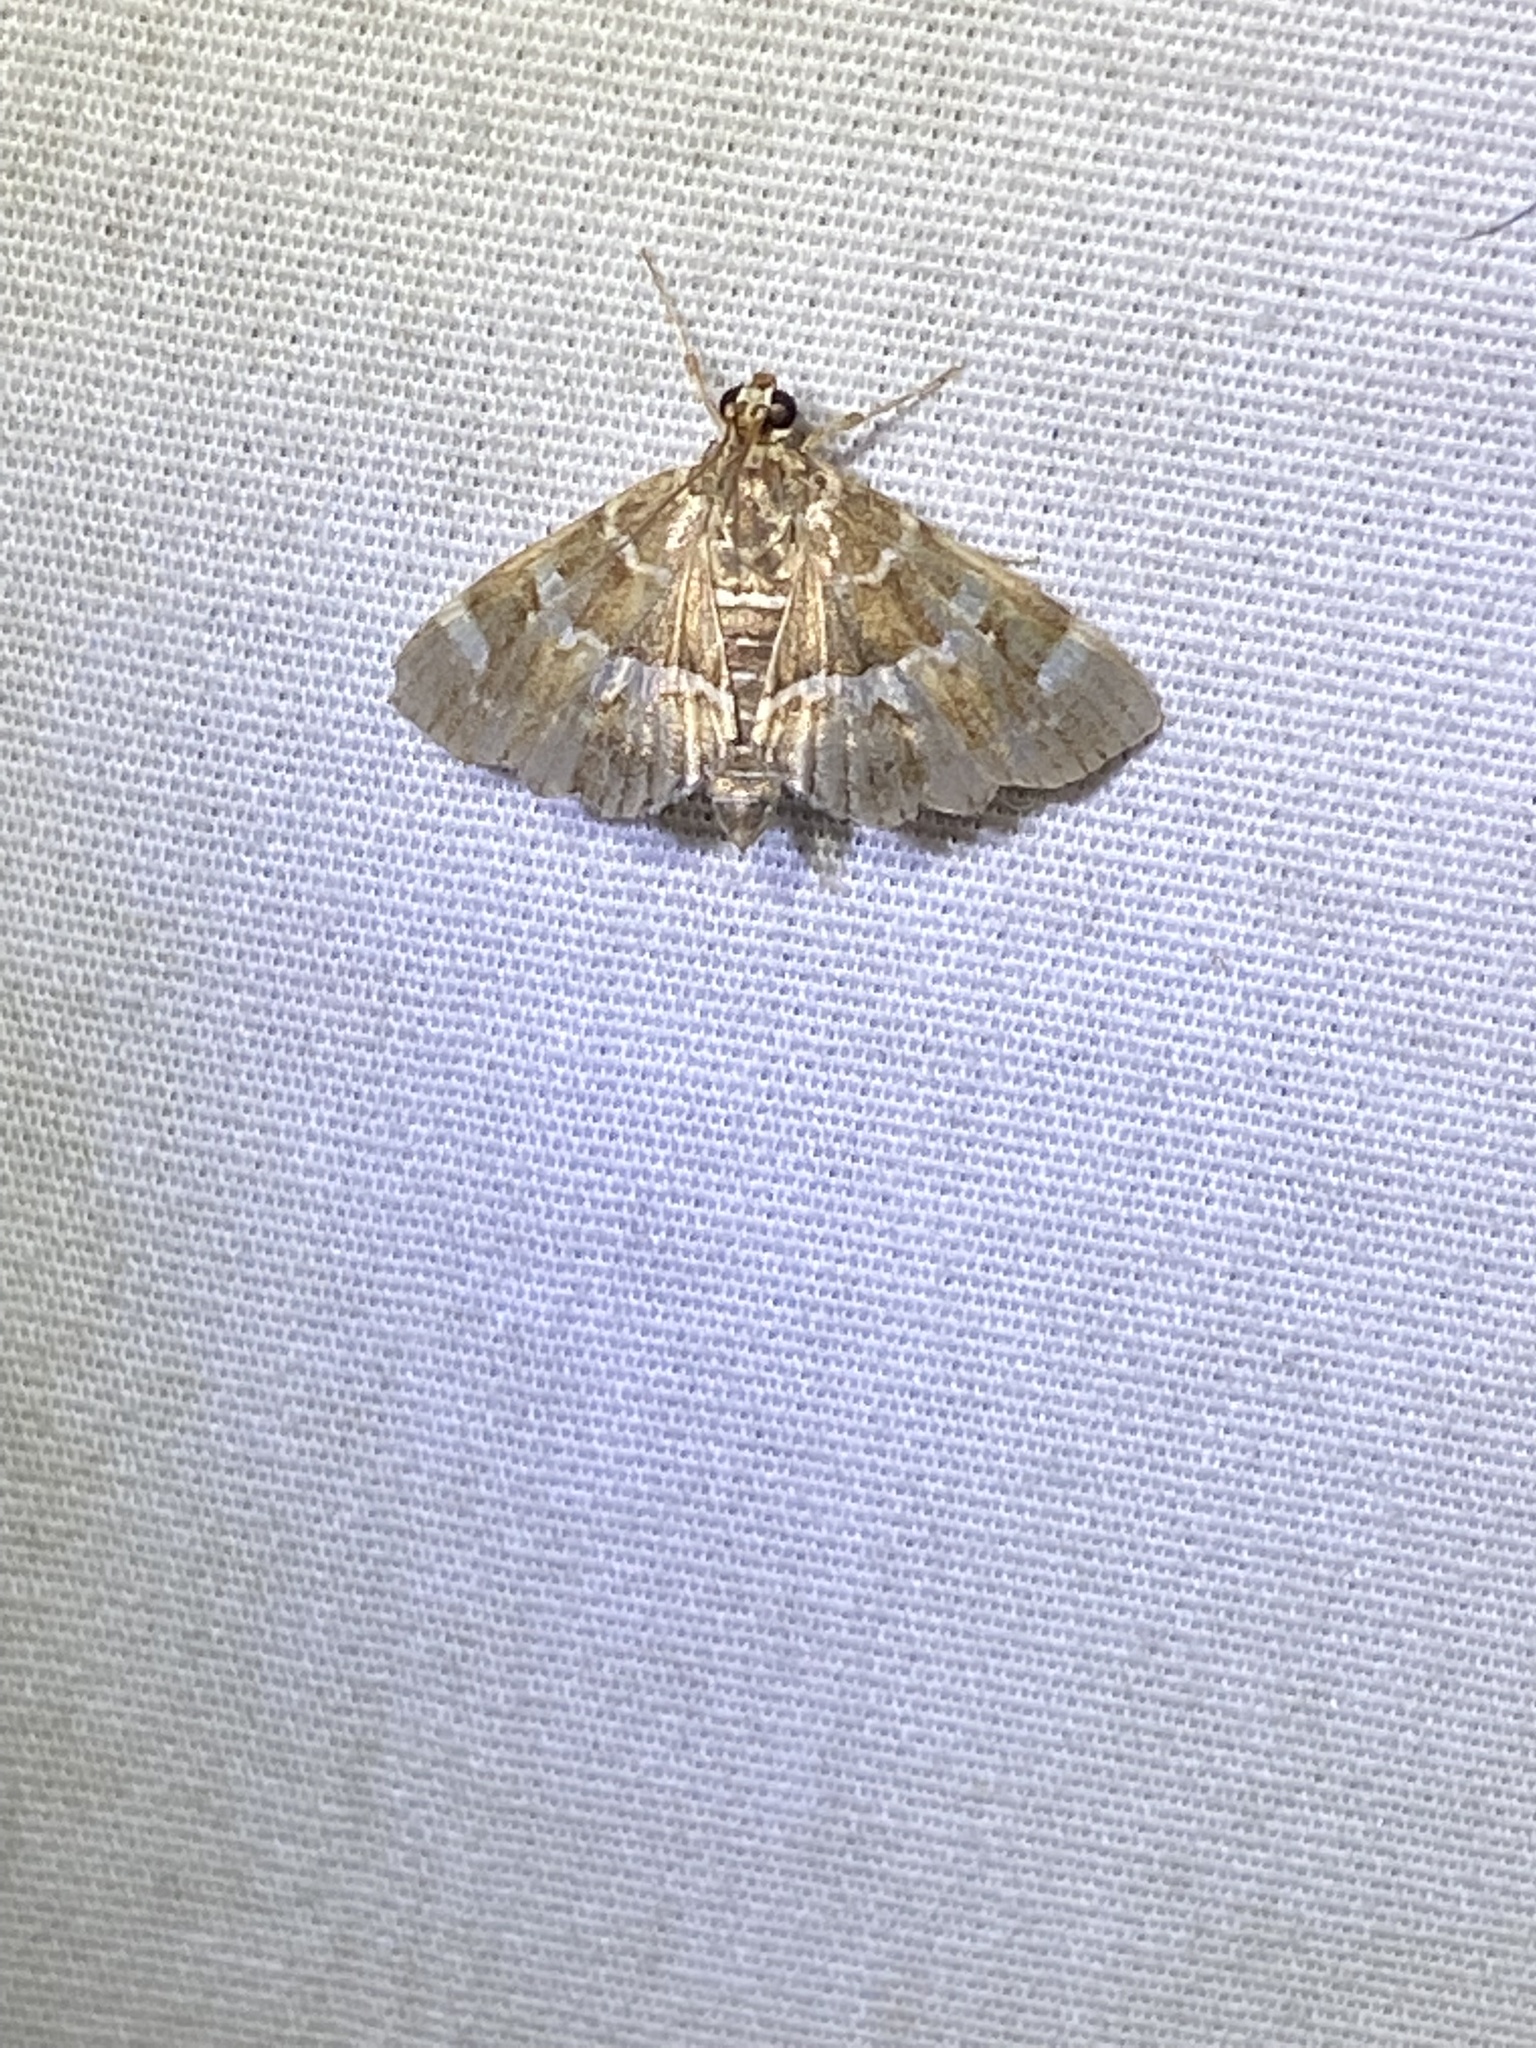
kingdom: Animalia
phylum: Arthropoda
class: Insecta
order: Lepidoptera
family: Crambidae
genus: Hymenia
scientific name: Hymenia perspectalis
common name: Spotted beet webworm
